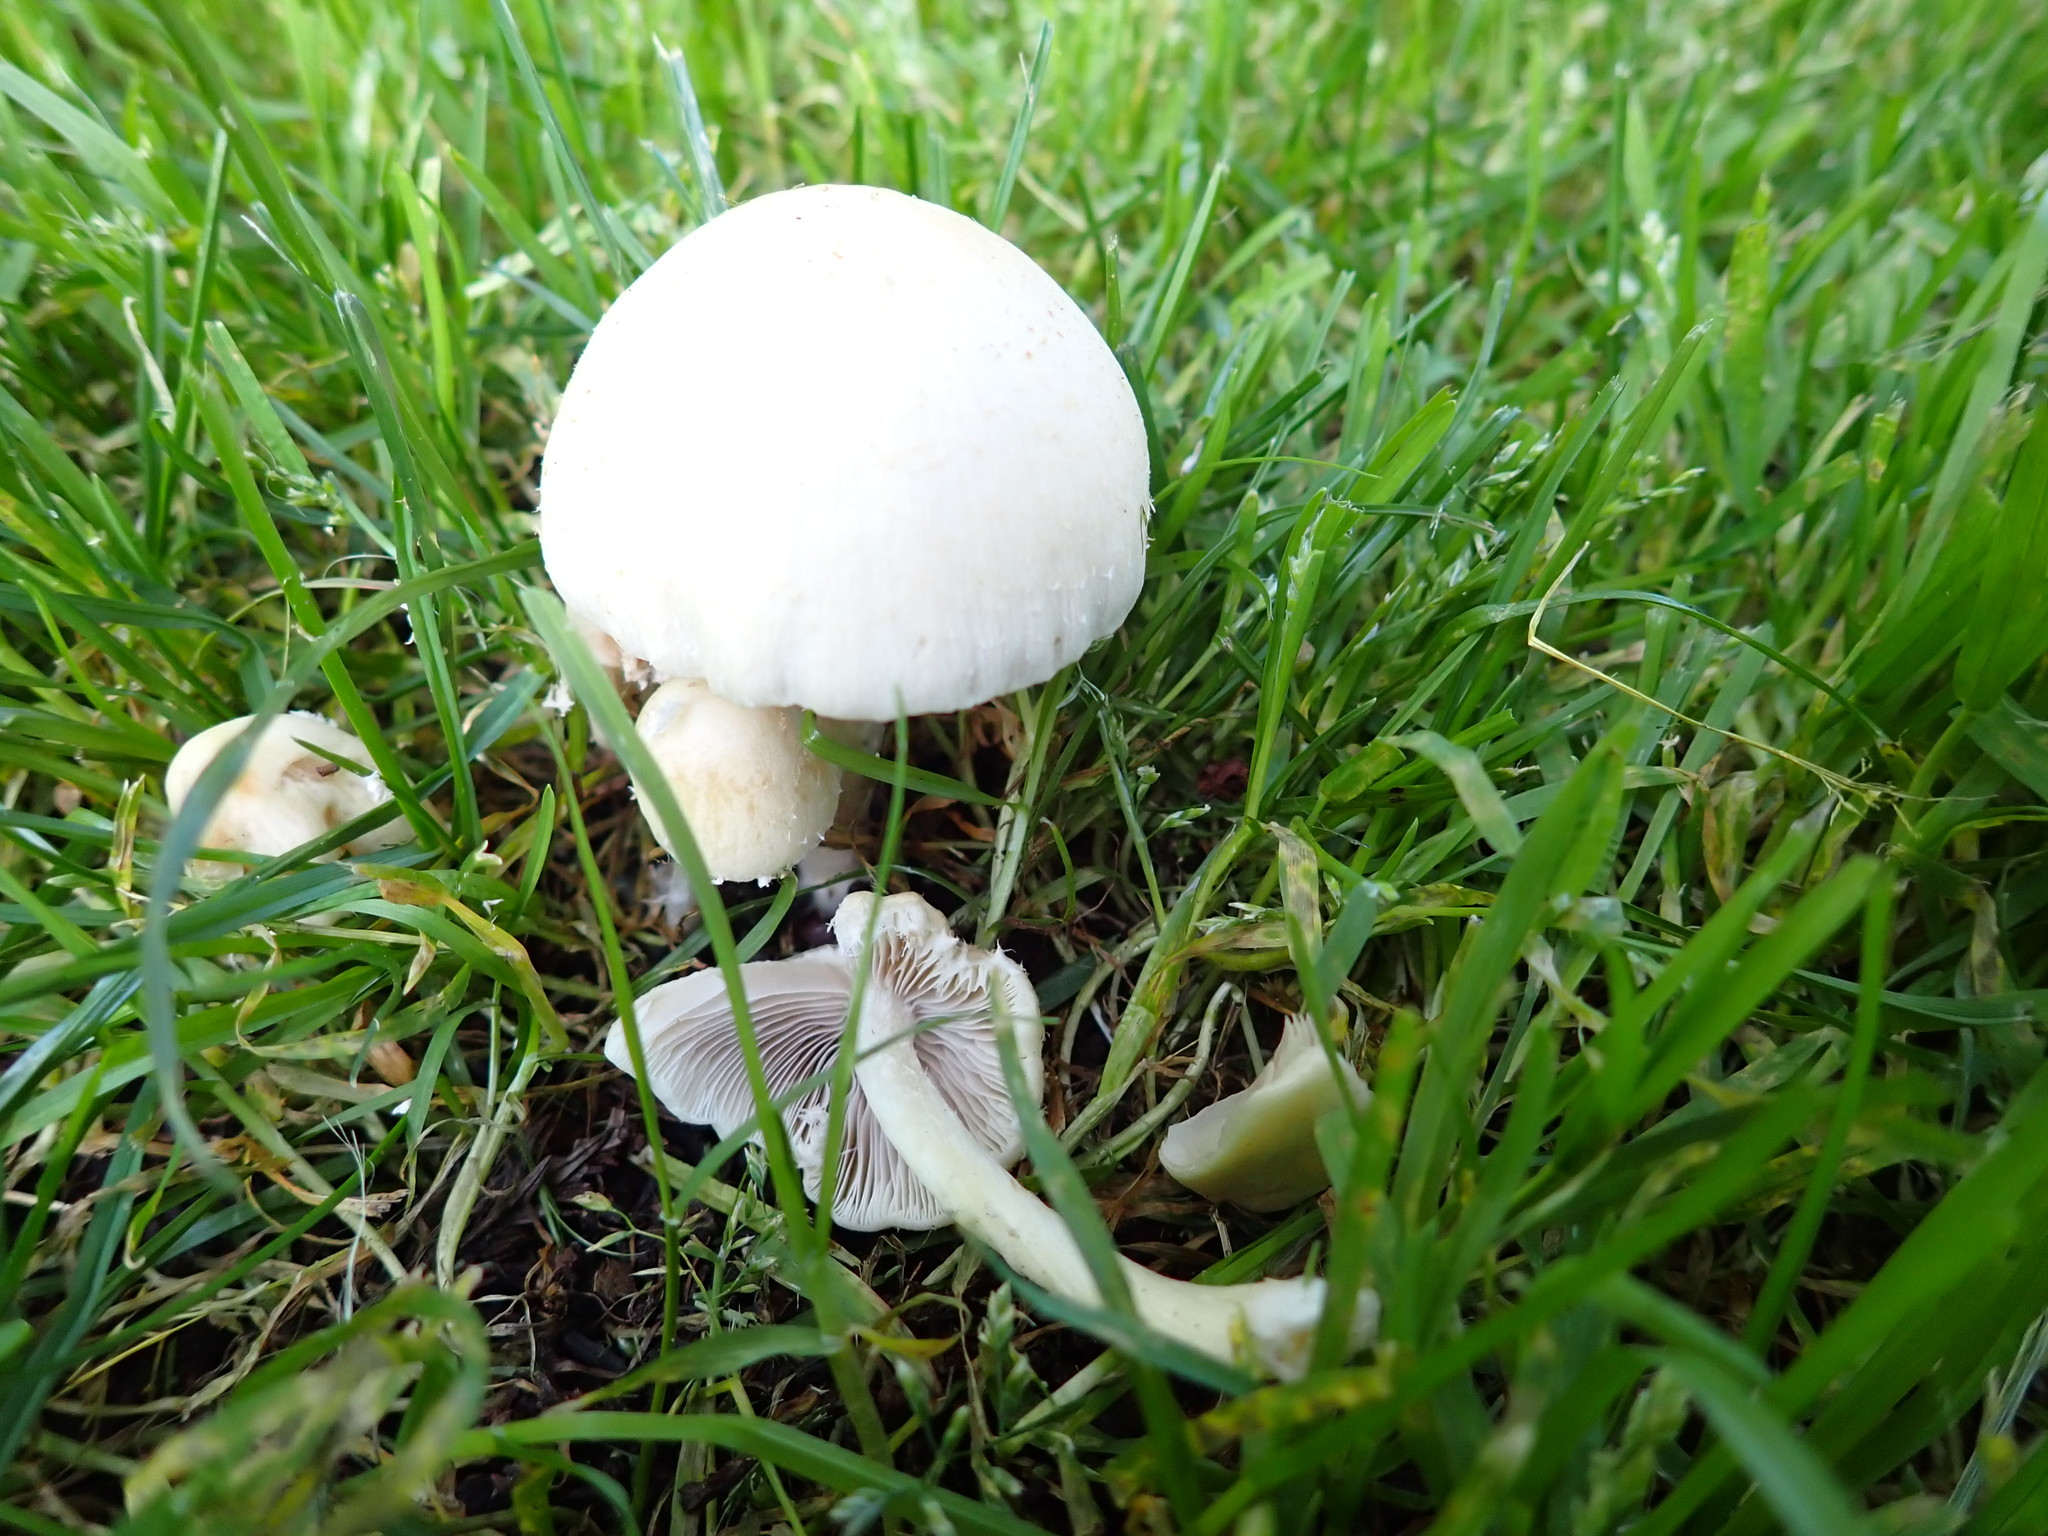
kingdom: Fungi
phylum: Basidiomycota
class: Agaricomycetes
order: Agaricales
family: Psathyrellaceae
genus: Candolleomyces
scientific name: Candolleomyces candolleanus
